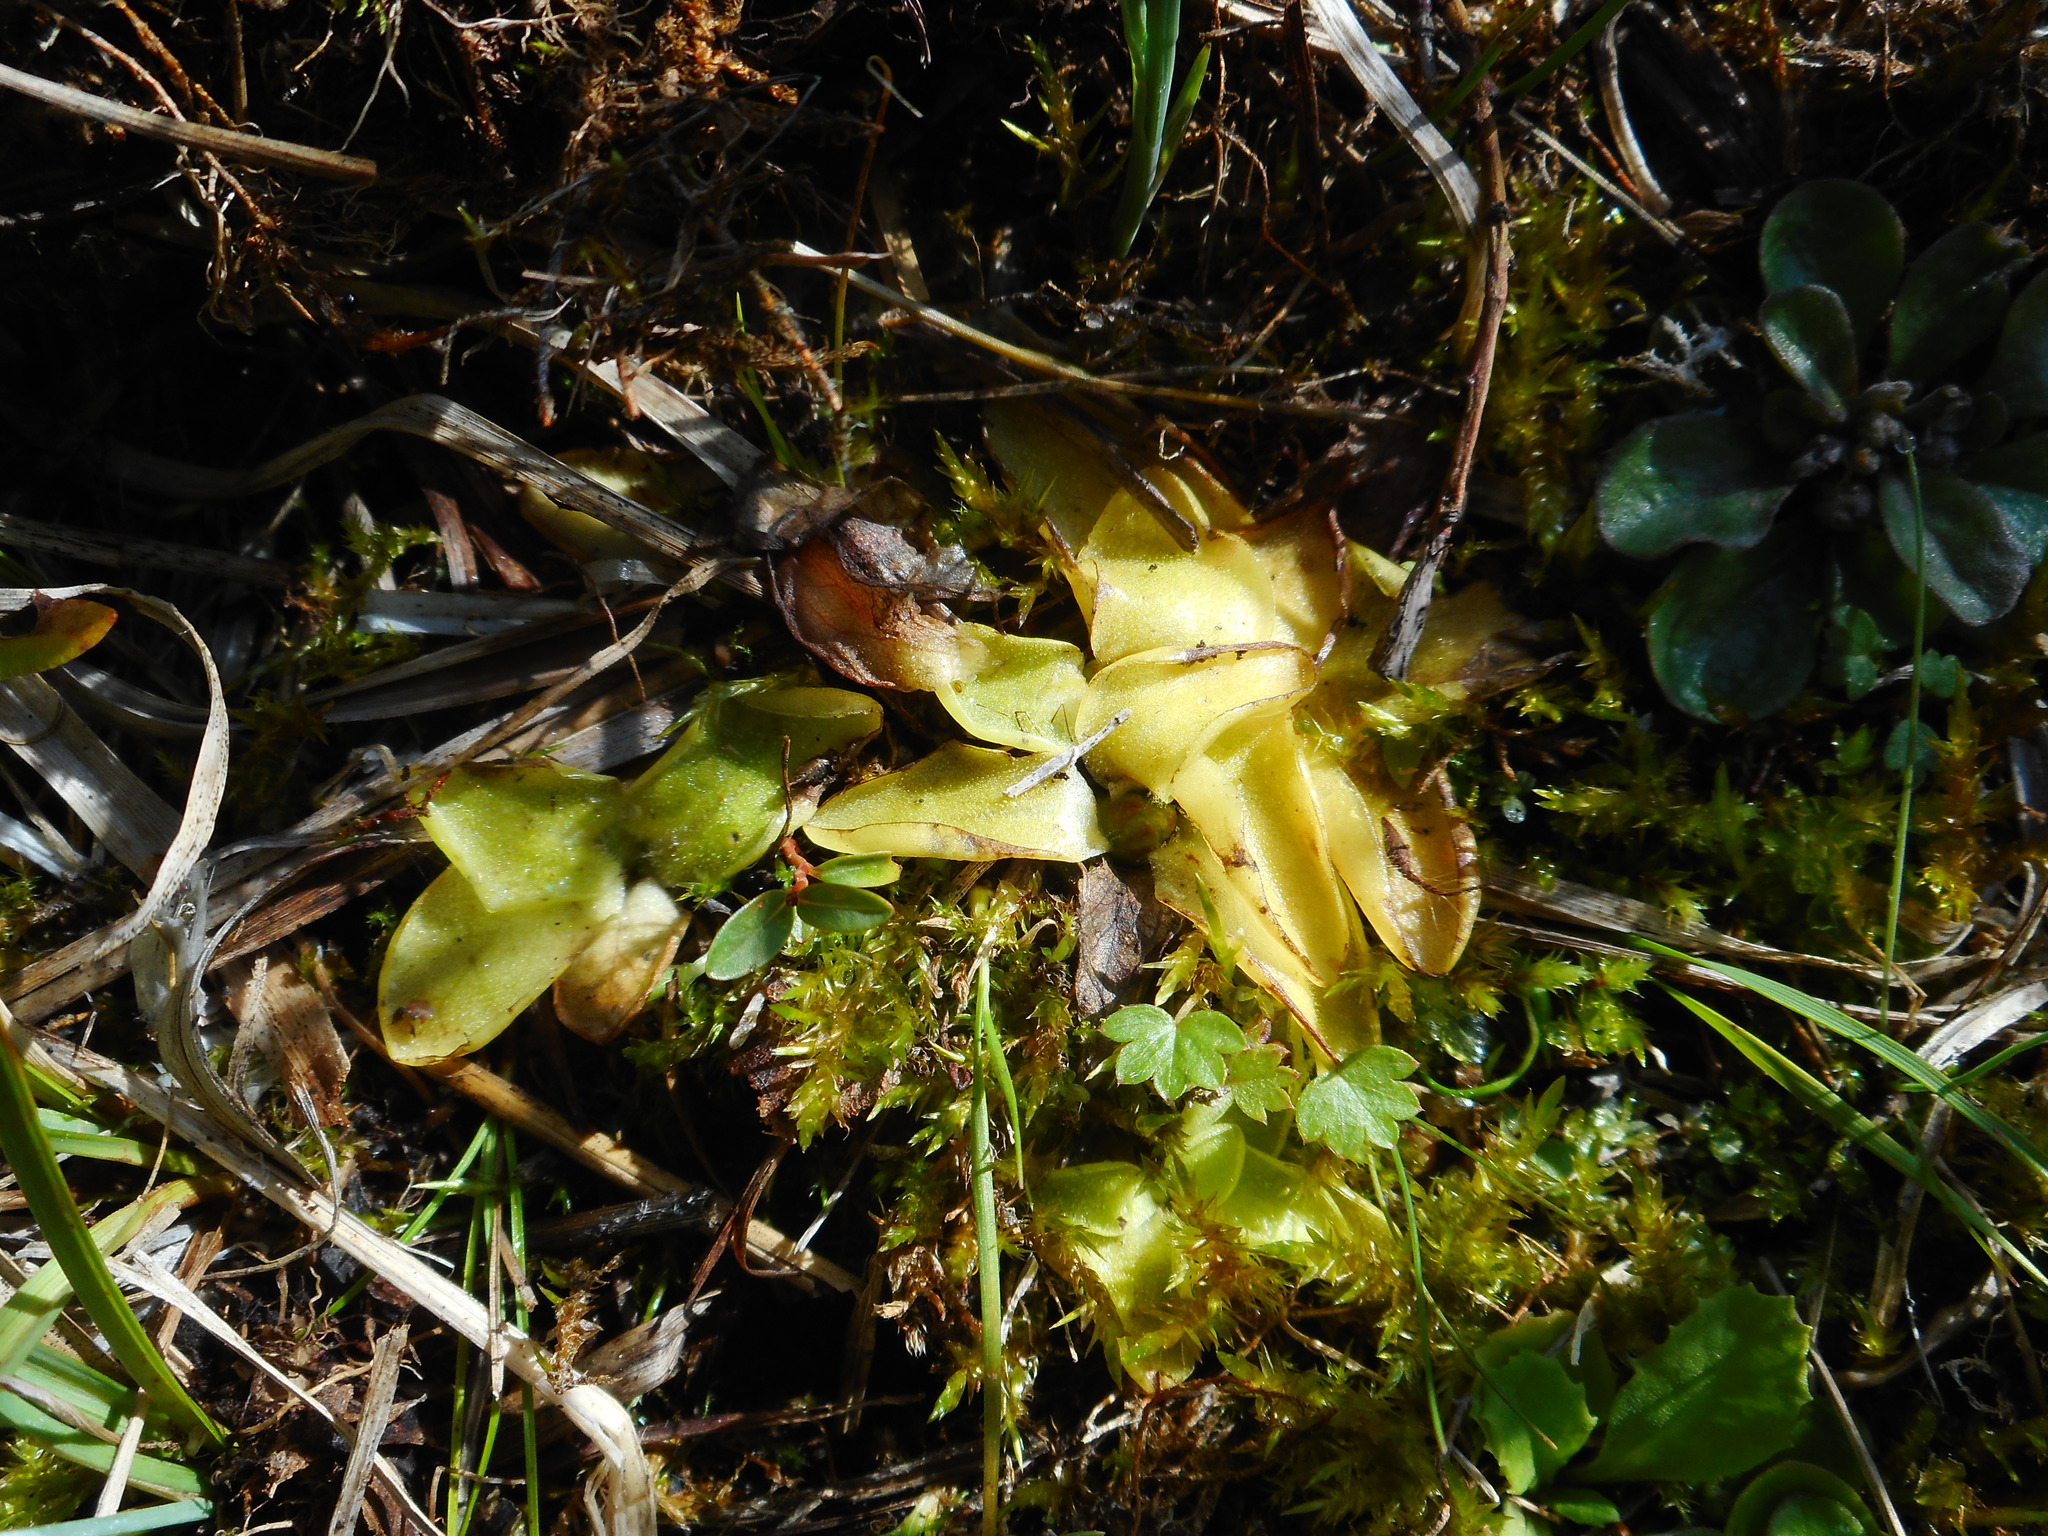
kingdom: Plantae
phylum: Tracheophyta
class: Magnoliopsida
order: Lamiales
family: Lentibulariaceae
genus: Pinguicula
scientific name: Pinguicula vulgaris
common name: Common butterwort
